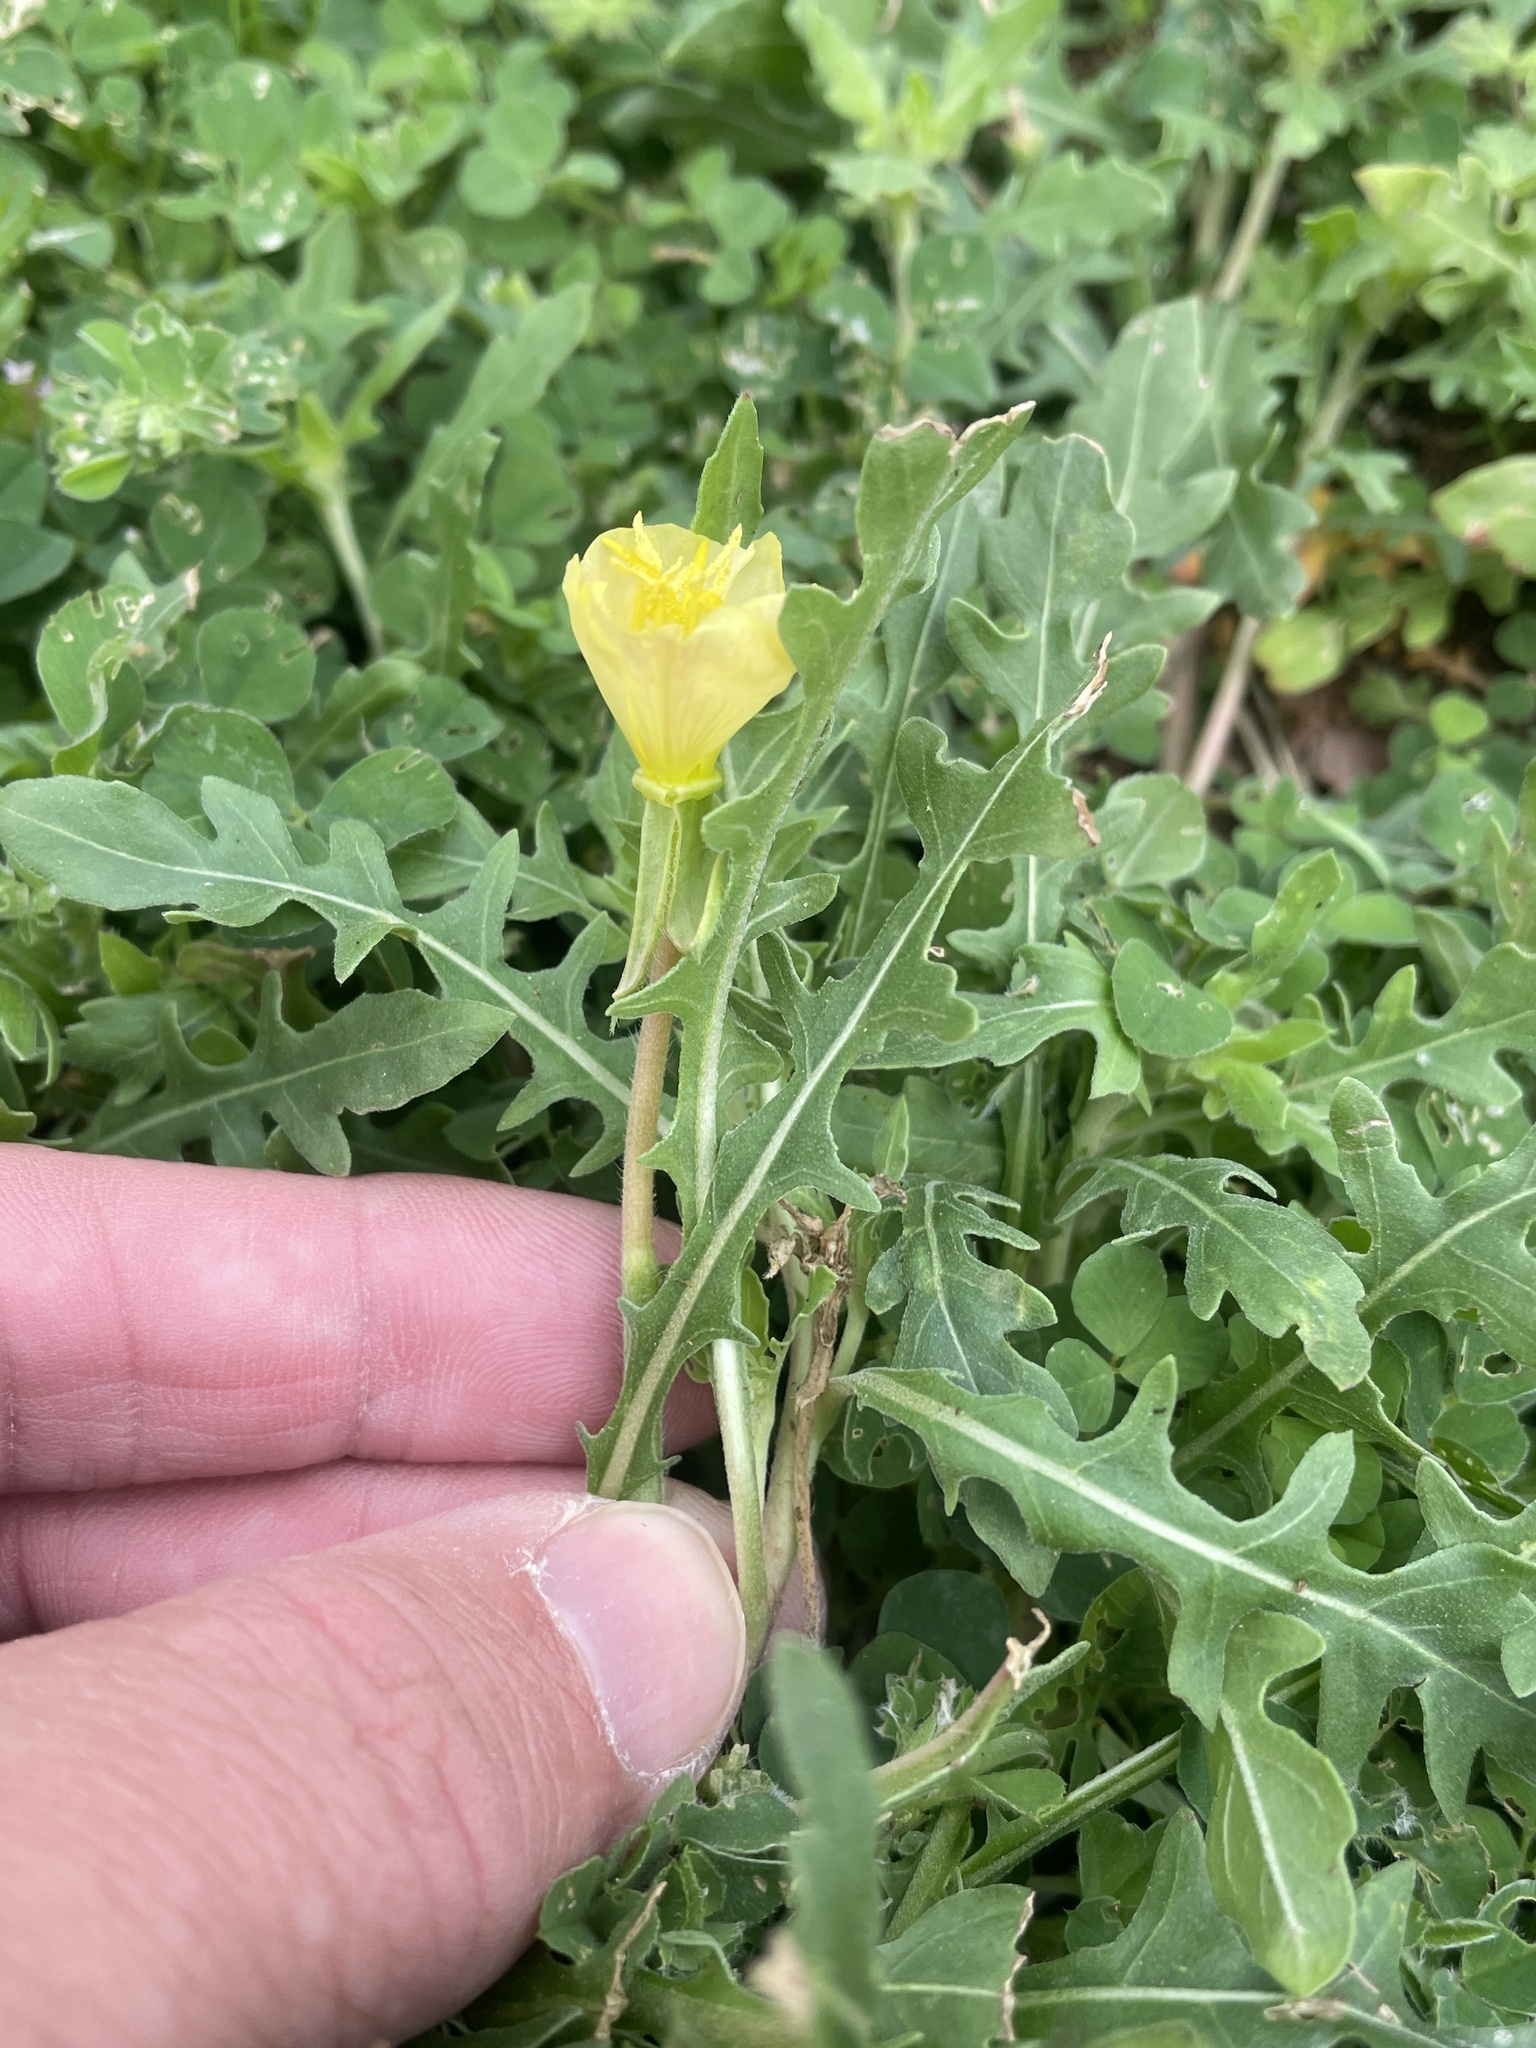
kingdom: Plantae
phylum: Tracheophyta
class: Magnoliopsida
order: Myrtales
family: Onagraceae
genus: Oenothera
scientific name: Oenothera laciniata
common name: Cut-leaved evening-primrose
